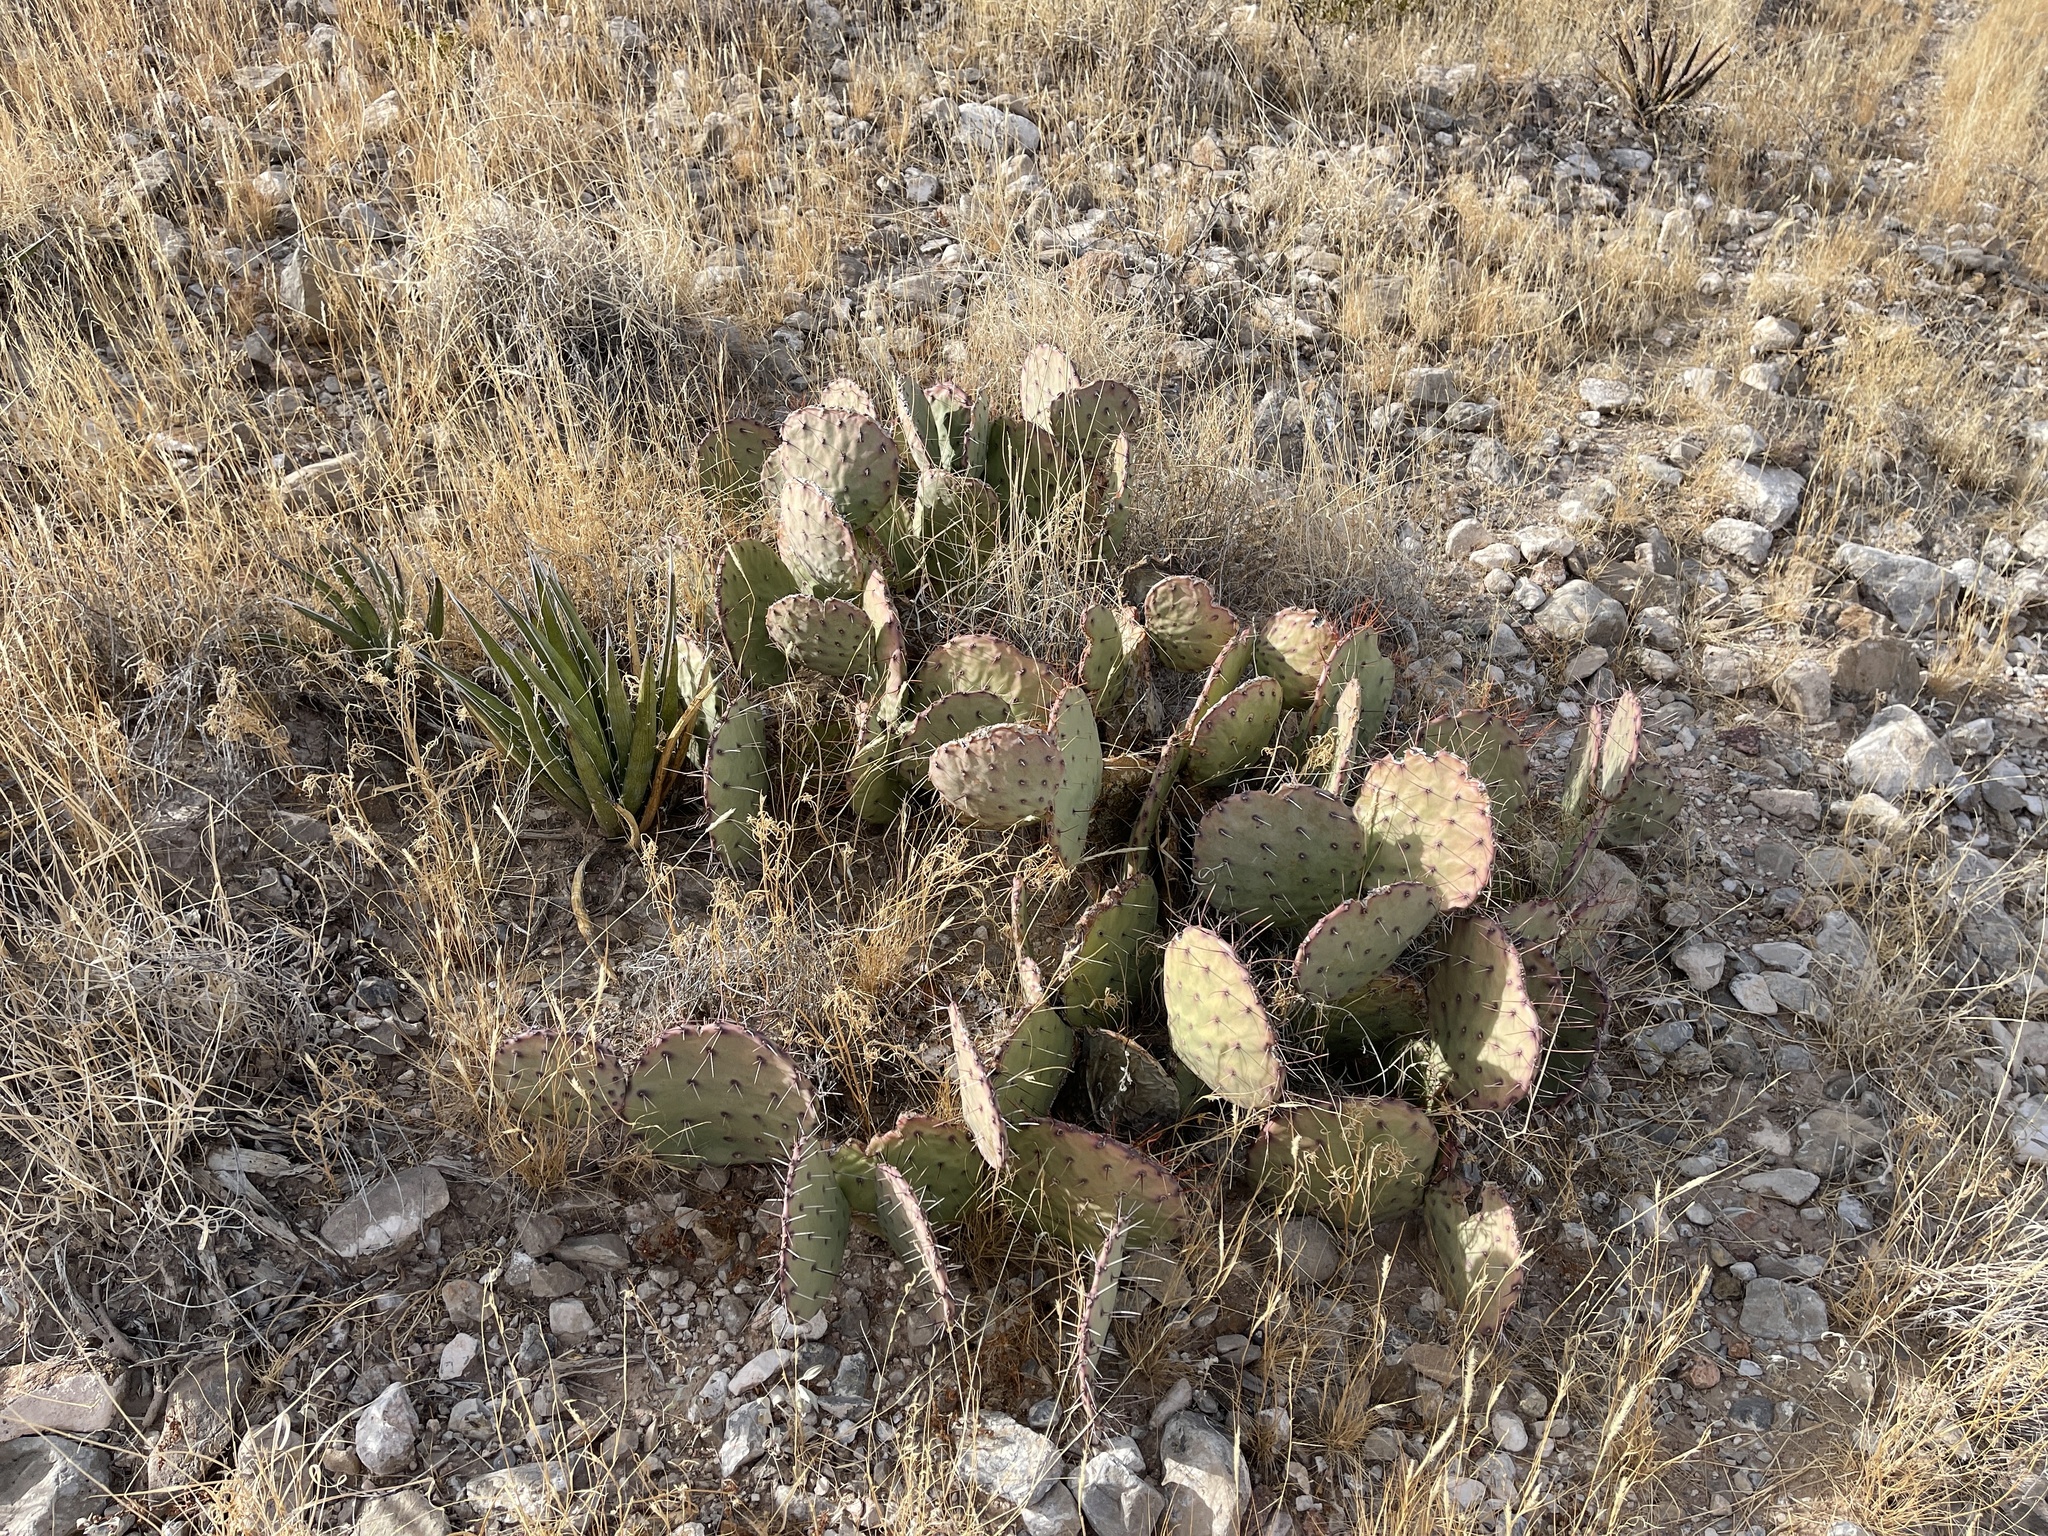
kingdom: Plantae
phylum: Tracheophyta
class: Magnoliopsida
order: Caryophyllales
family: Cactaceae
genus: Opuntia
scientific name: Opuntia phaeacantha
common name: New mexico prickly-pear
